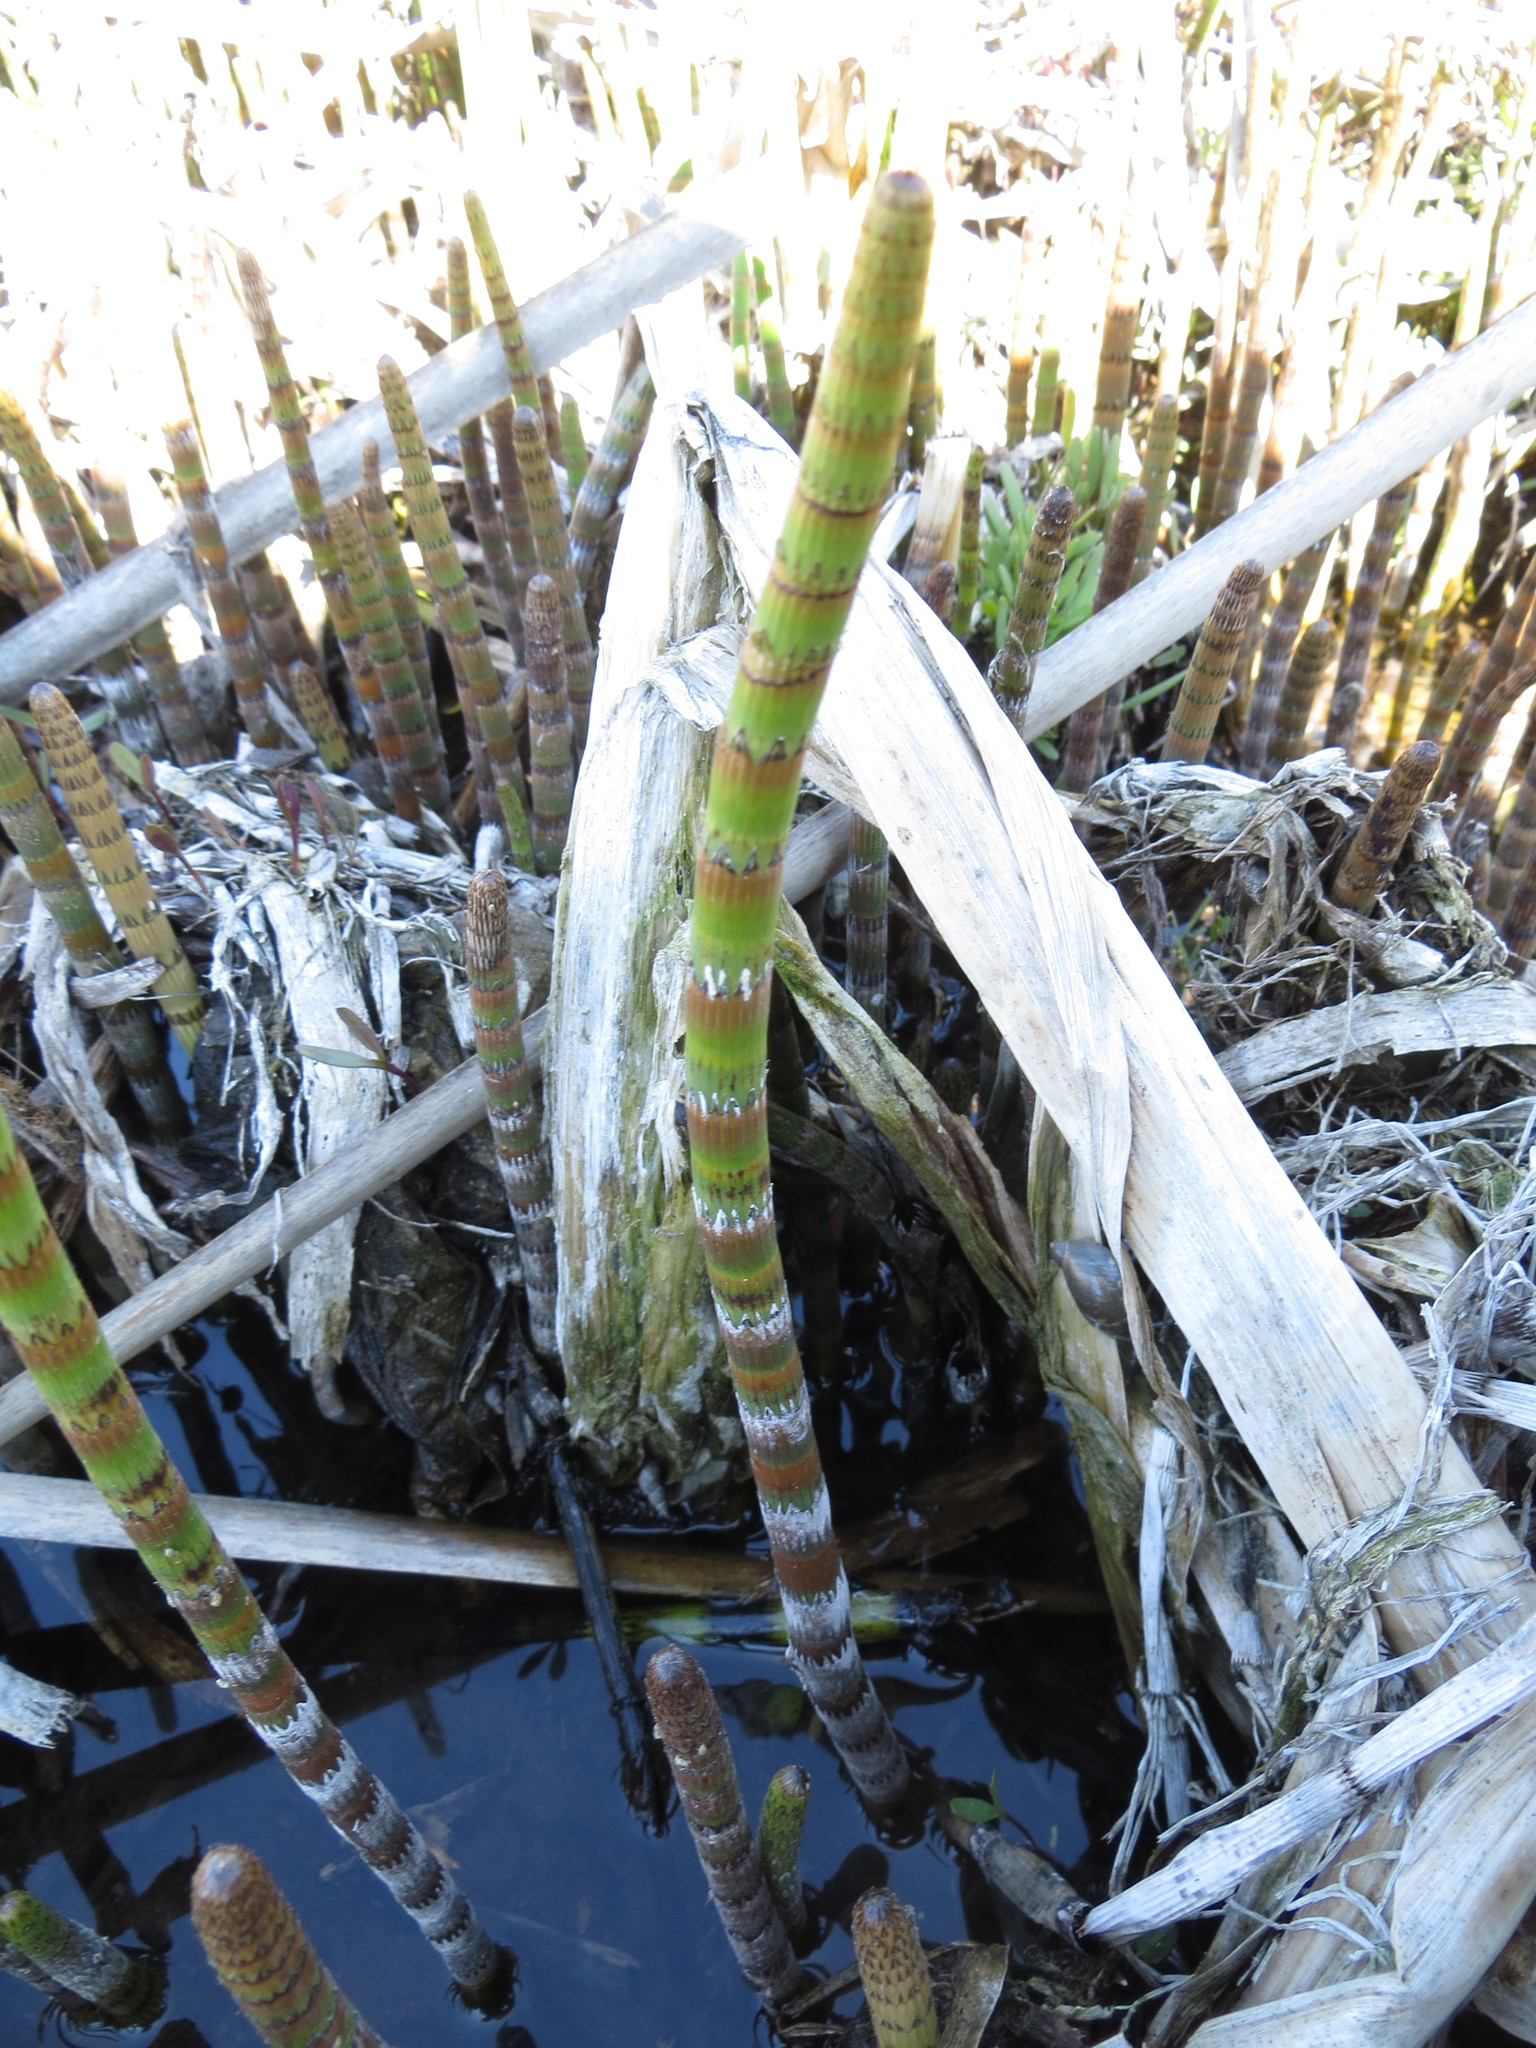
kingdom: Plantae
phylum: Tracheophyta
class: Polypodiopsida
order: Equisetales
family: Equisetaceae
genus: Equisetum
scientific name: Equisetum fluviatile
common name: Water horsetail
